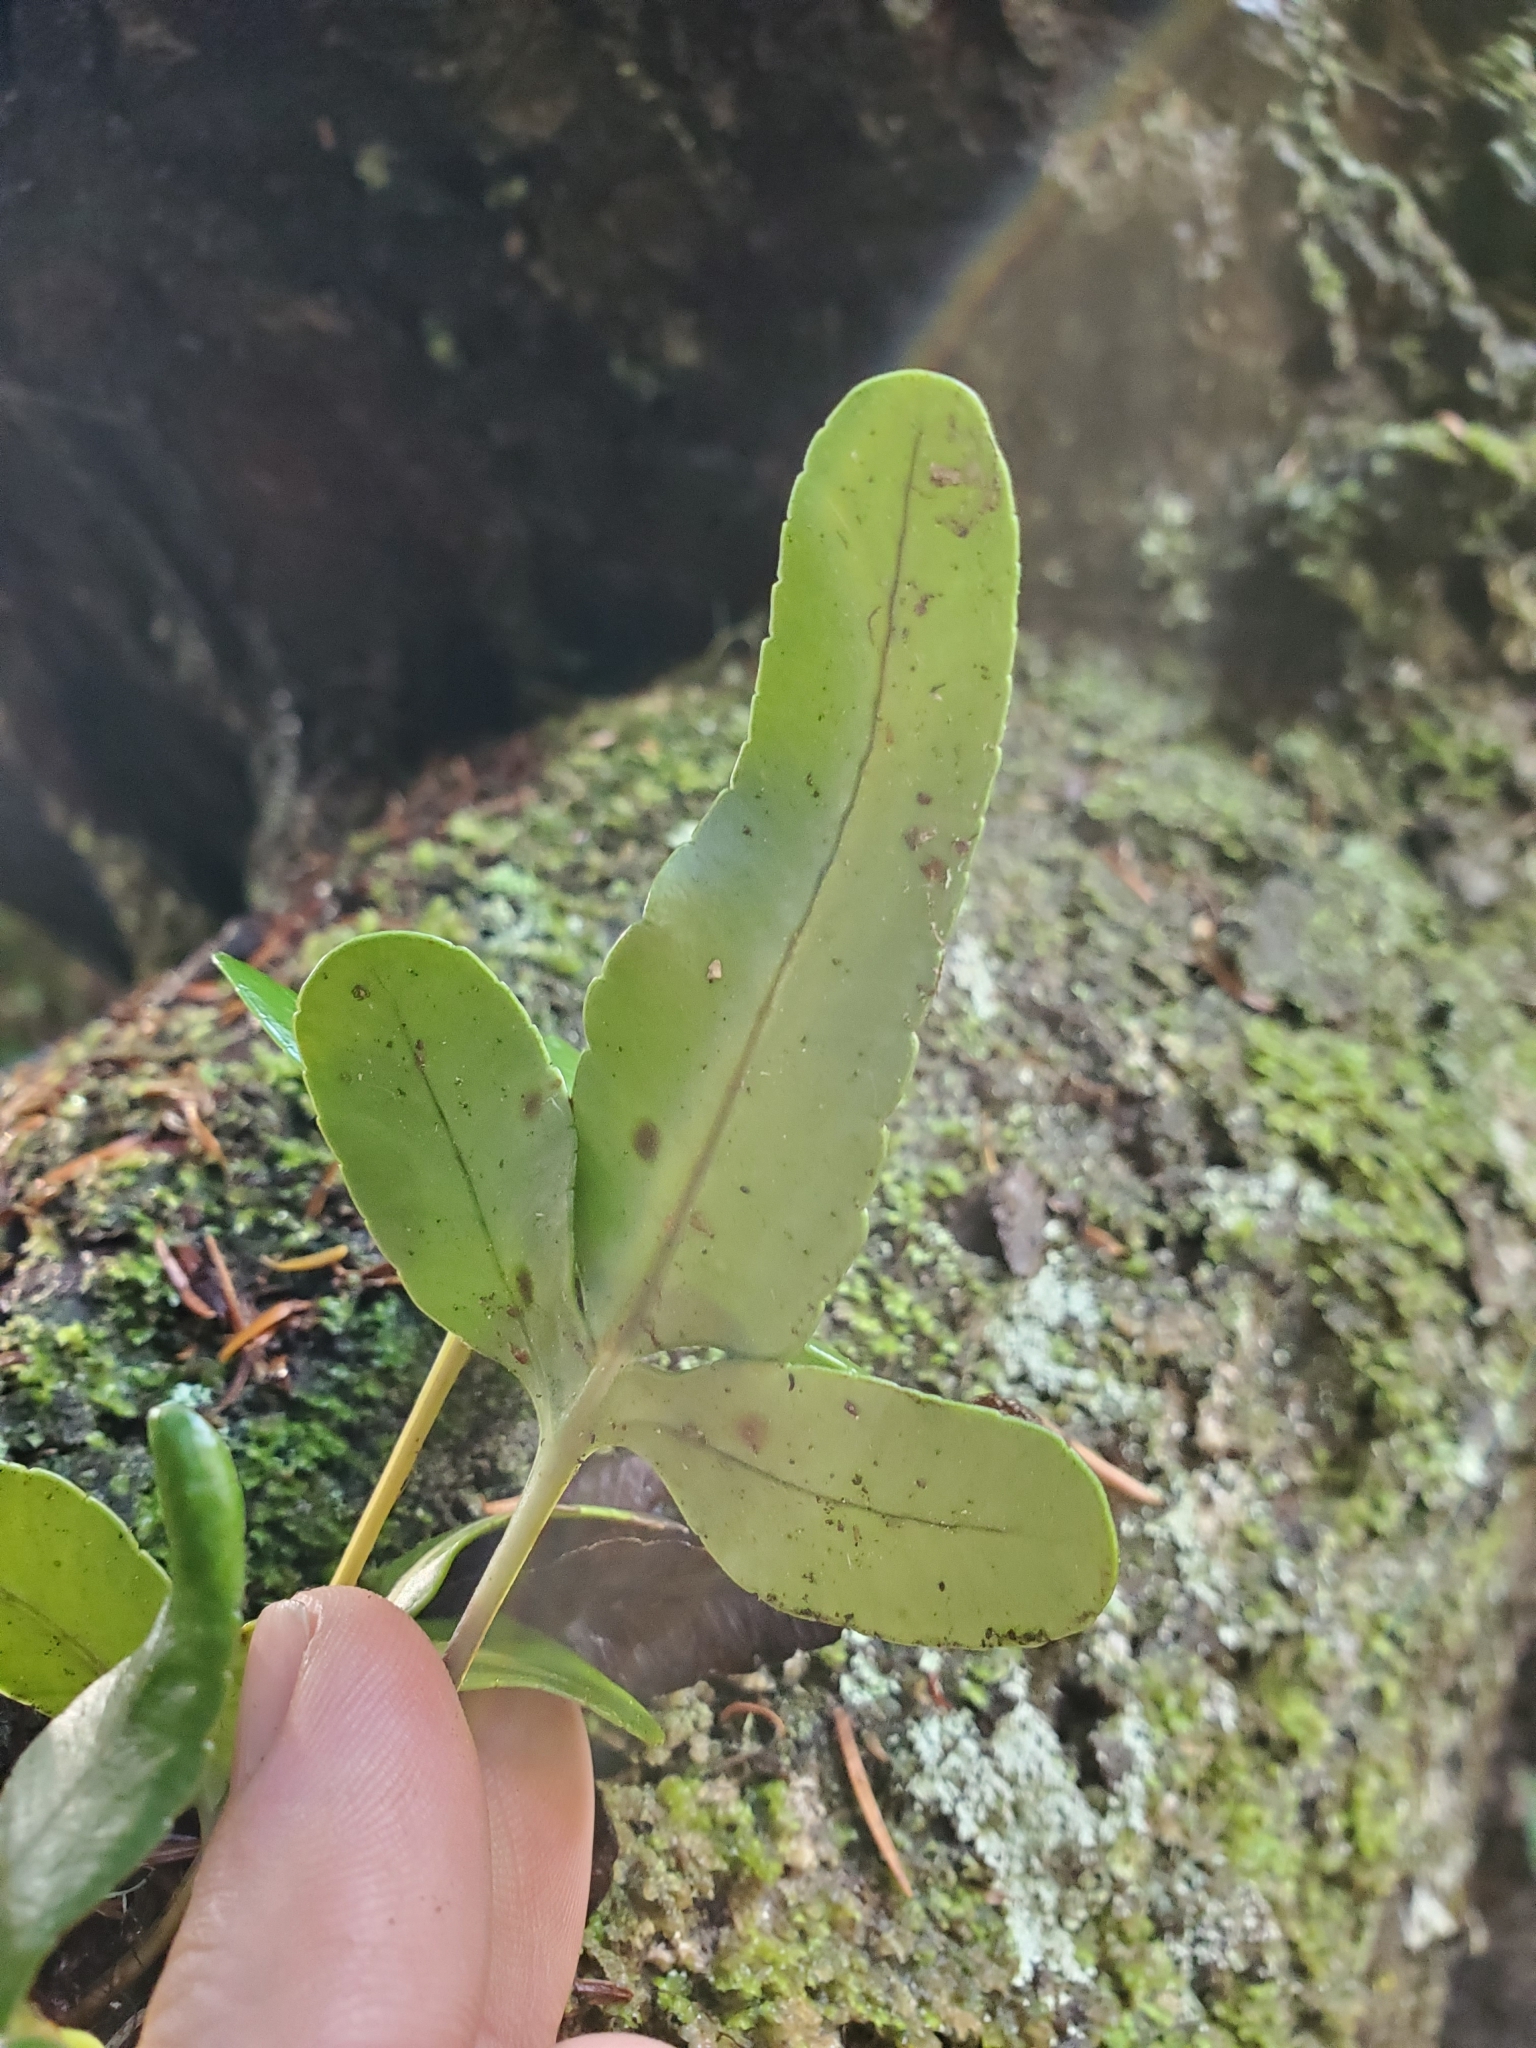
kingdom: Plantae
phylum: Tracheophyta
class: Polypodiopsida
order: Polypodiales
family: Polypodiaceae
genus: Polypodium
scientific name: Polypodium scouleri
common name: Scouler's polypody
